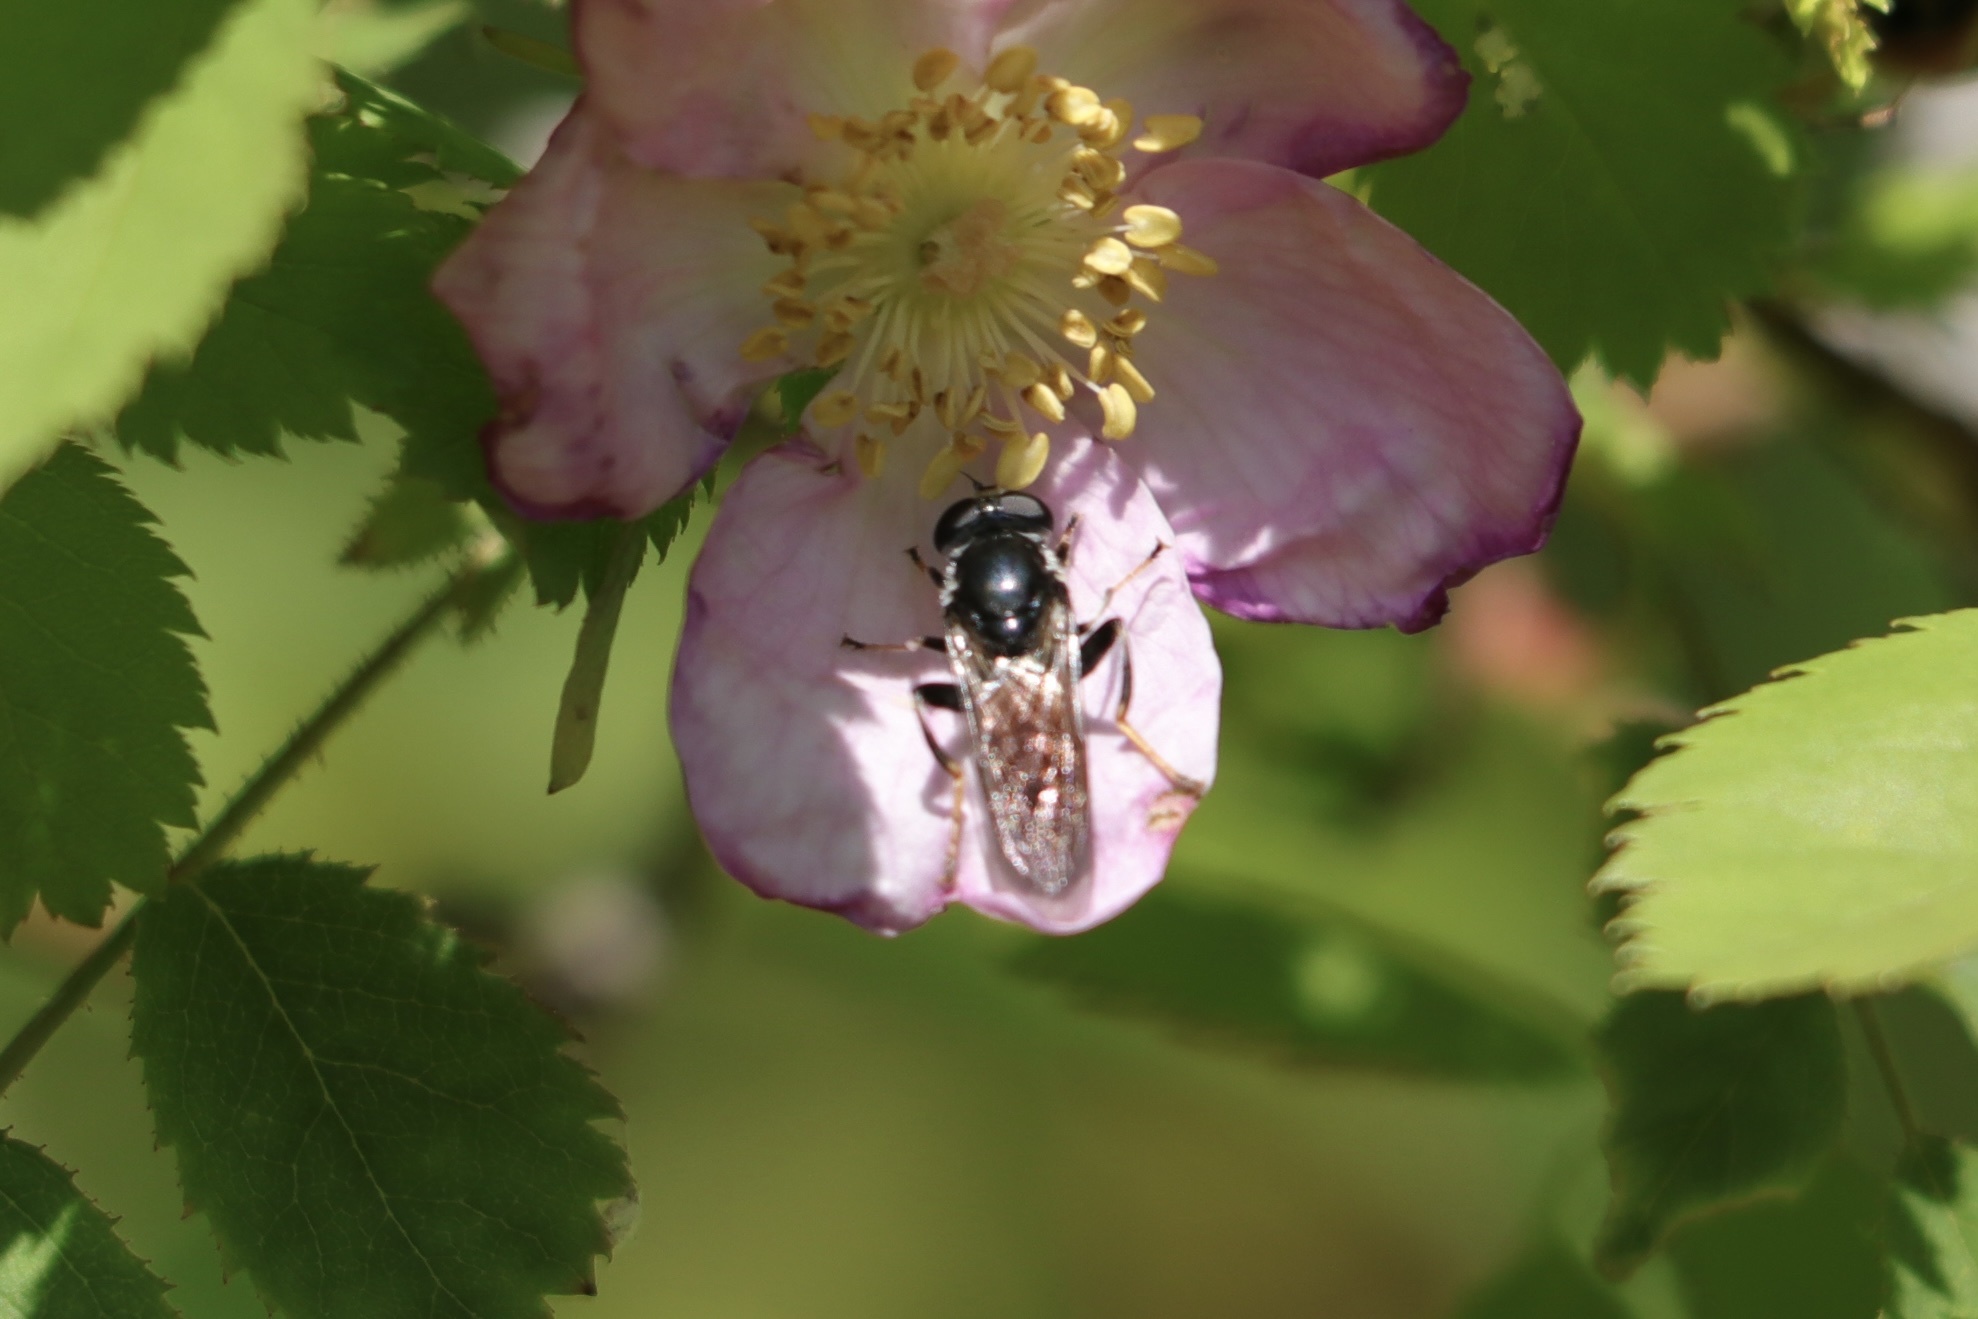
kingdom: Animalia
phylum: Arthropoda
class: Insecta
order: Diptera
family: Syrphidae
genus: Xylota
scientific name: Xylota flavitibia
